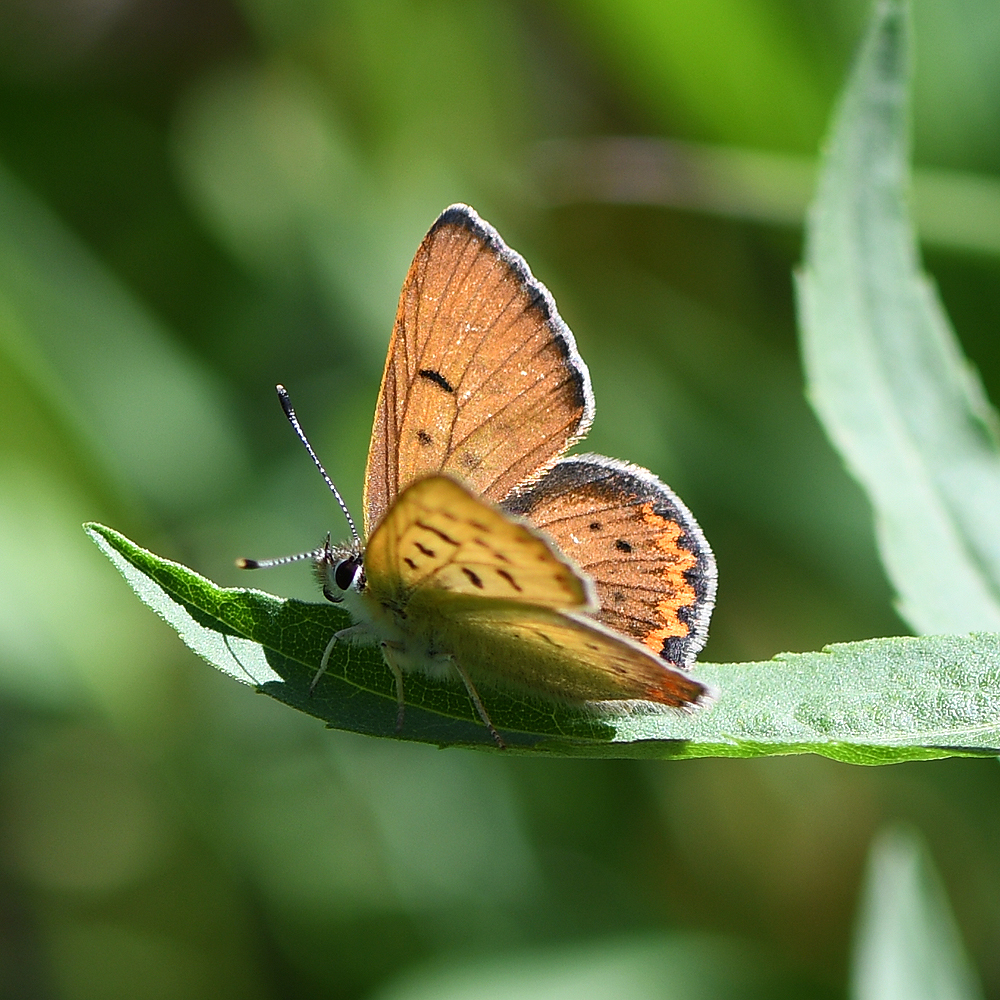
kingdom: Animalia
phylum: Arthropoda
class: Insecta
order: Lepidoptera
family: Lycaenidae
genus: Tharsalea
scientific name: Tharsalea nivalis
